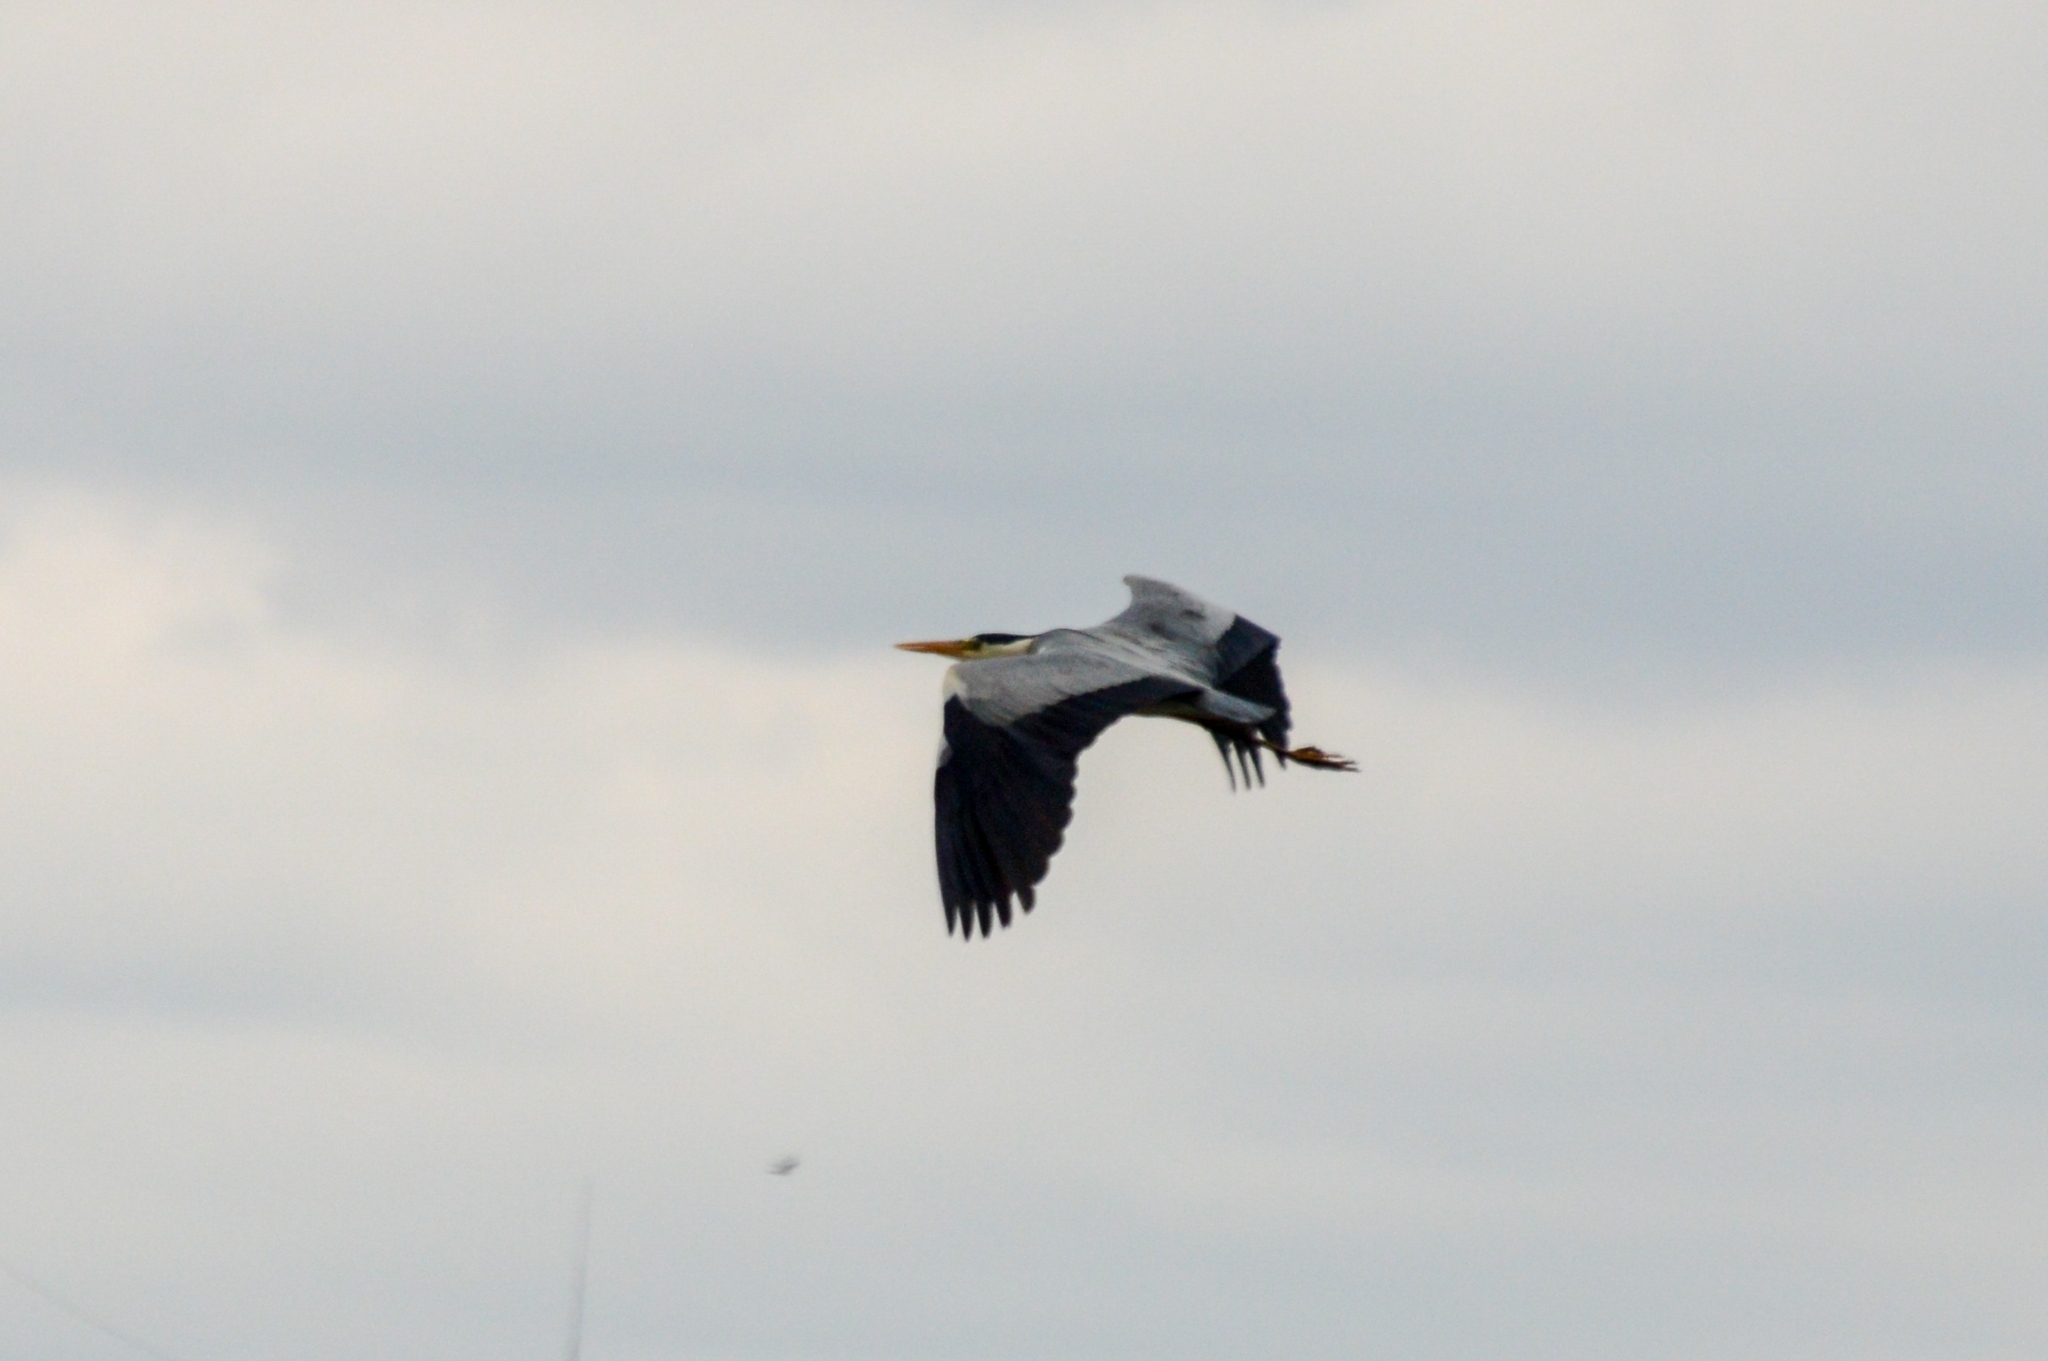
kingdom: Animalia
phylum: Chordata
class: Aves
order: Pelecaniformes
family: Ardeidae
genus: Ardea
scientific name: Ardea cinerea
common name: Grey heron
